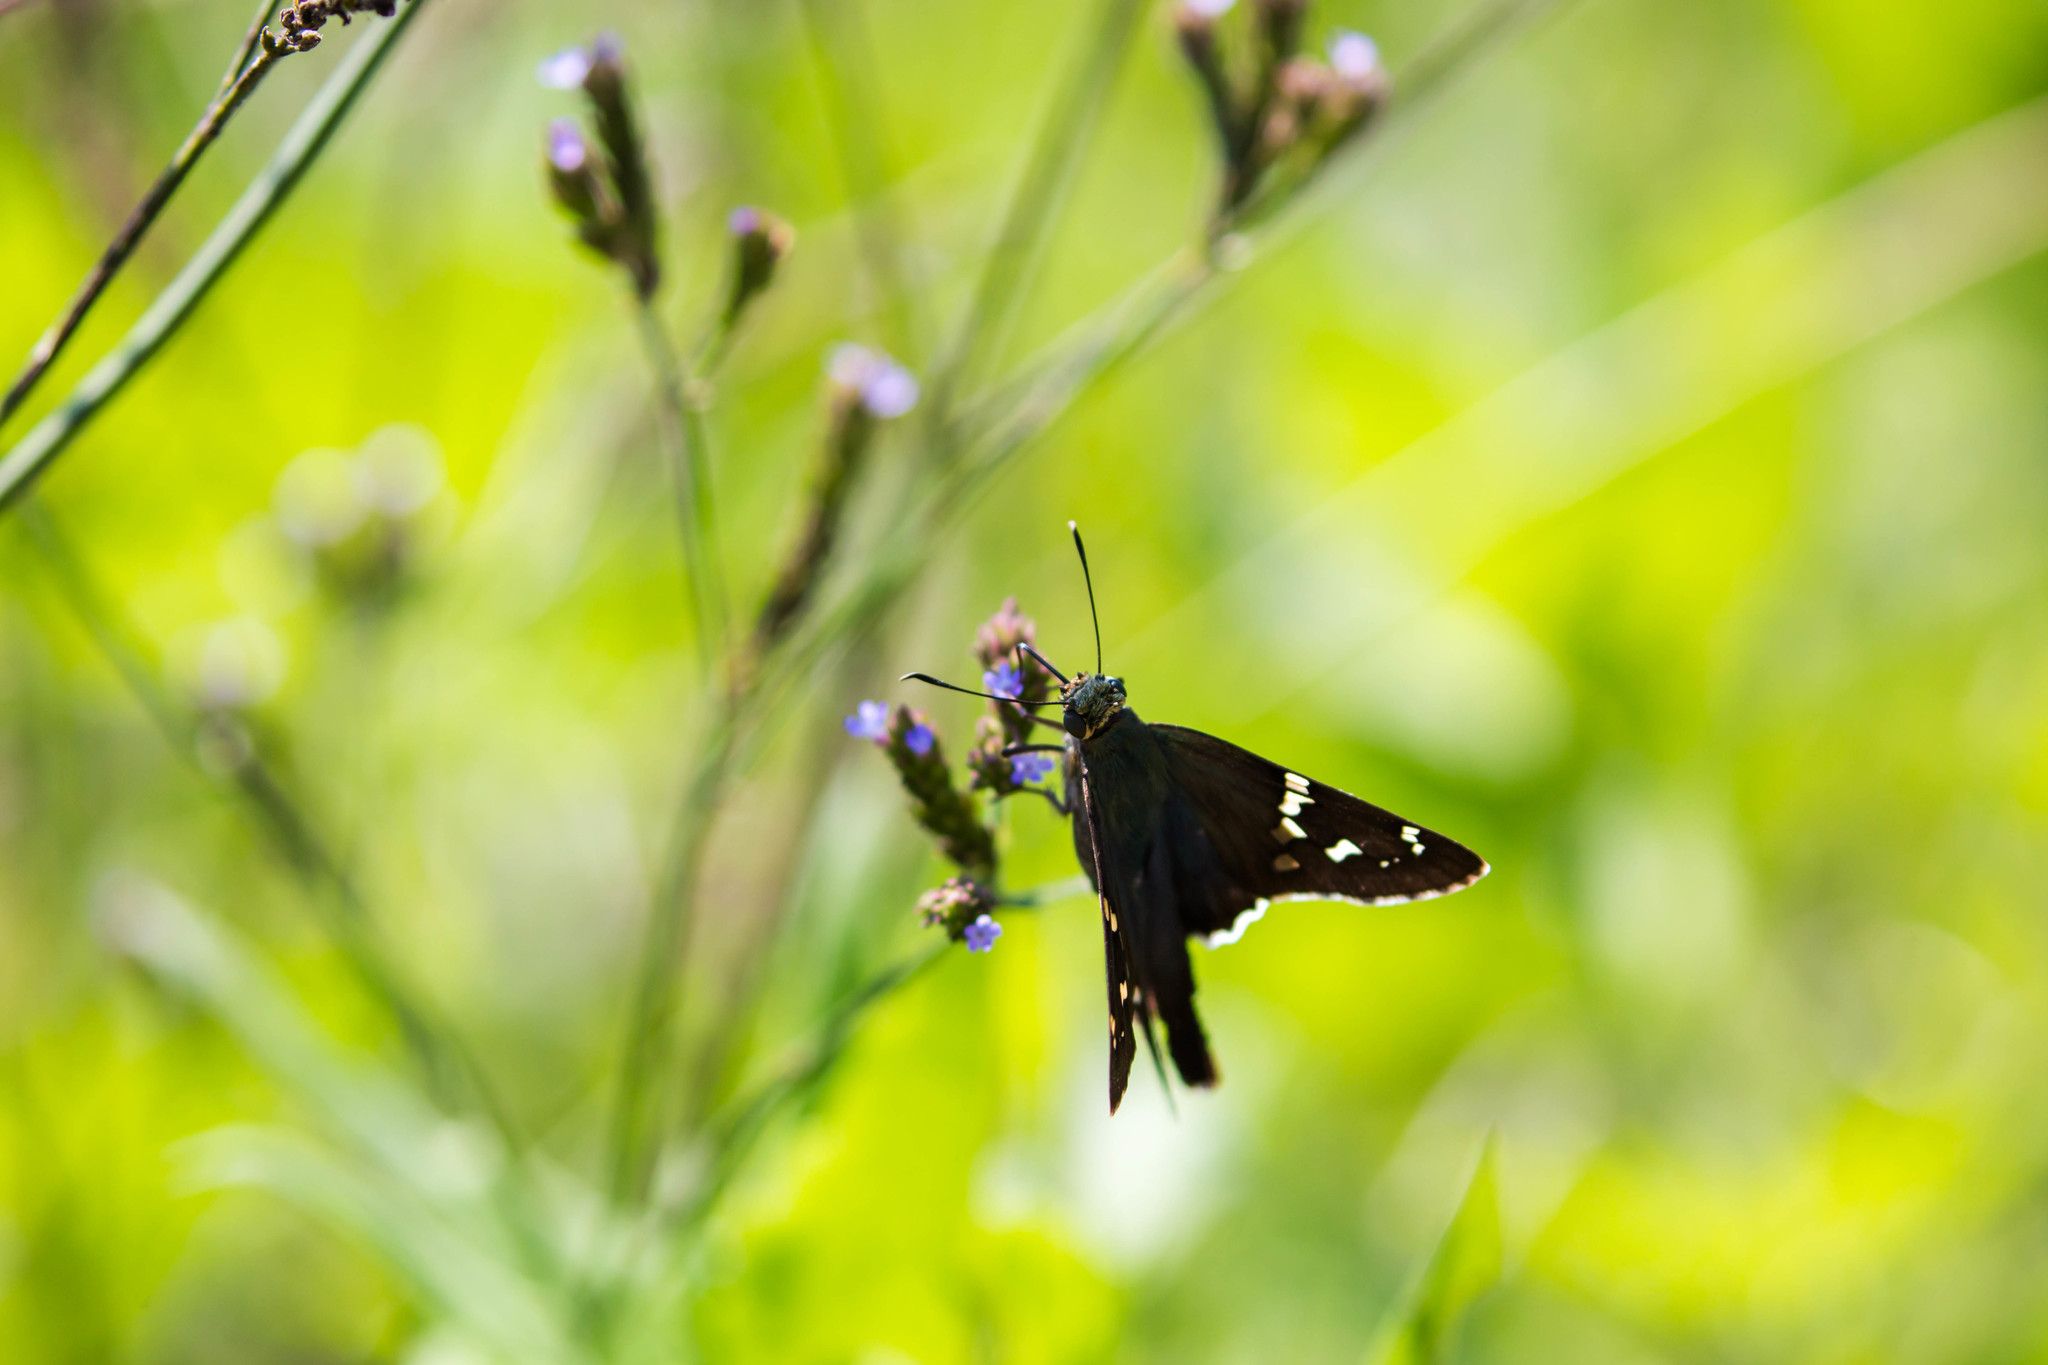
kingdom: Animalia
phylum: Arthropoda
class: Insecta
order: Lepidoptera
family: Hesperiidae
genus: Urbanus
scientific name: Urbanus proteus
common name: Long-tailed skipper
